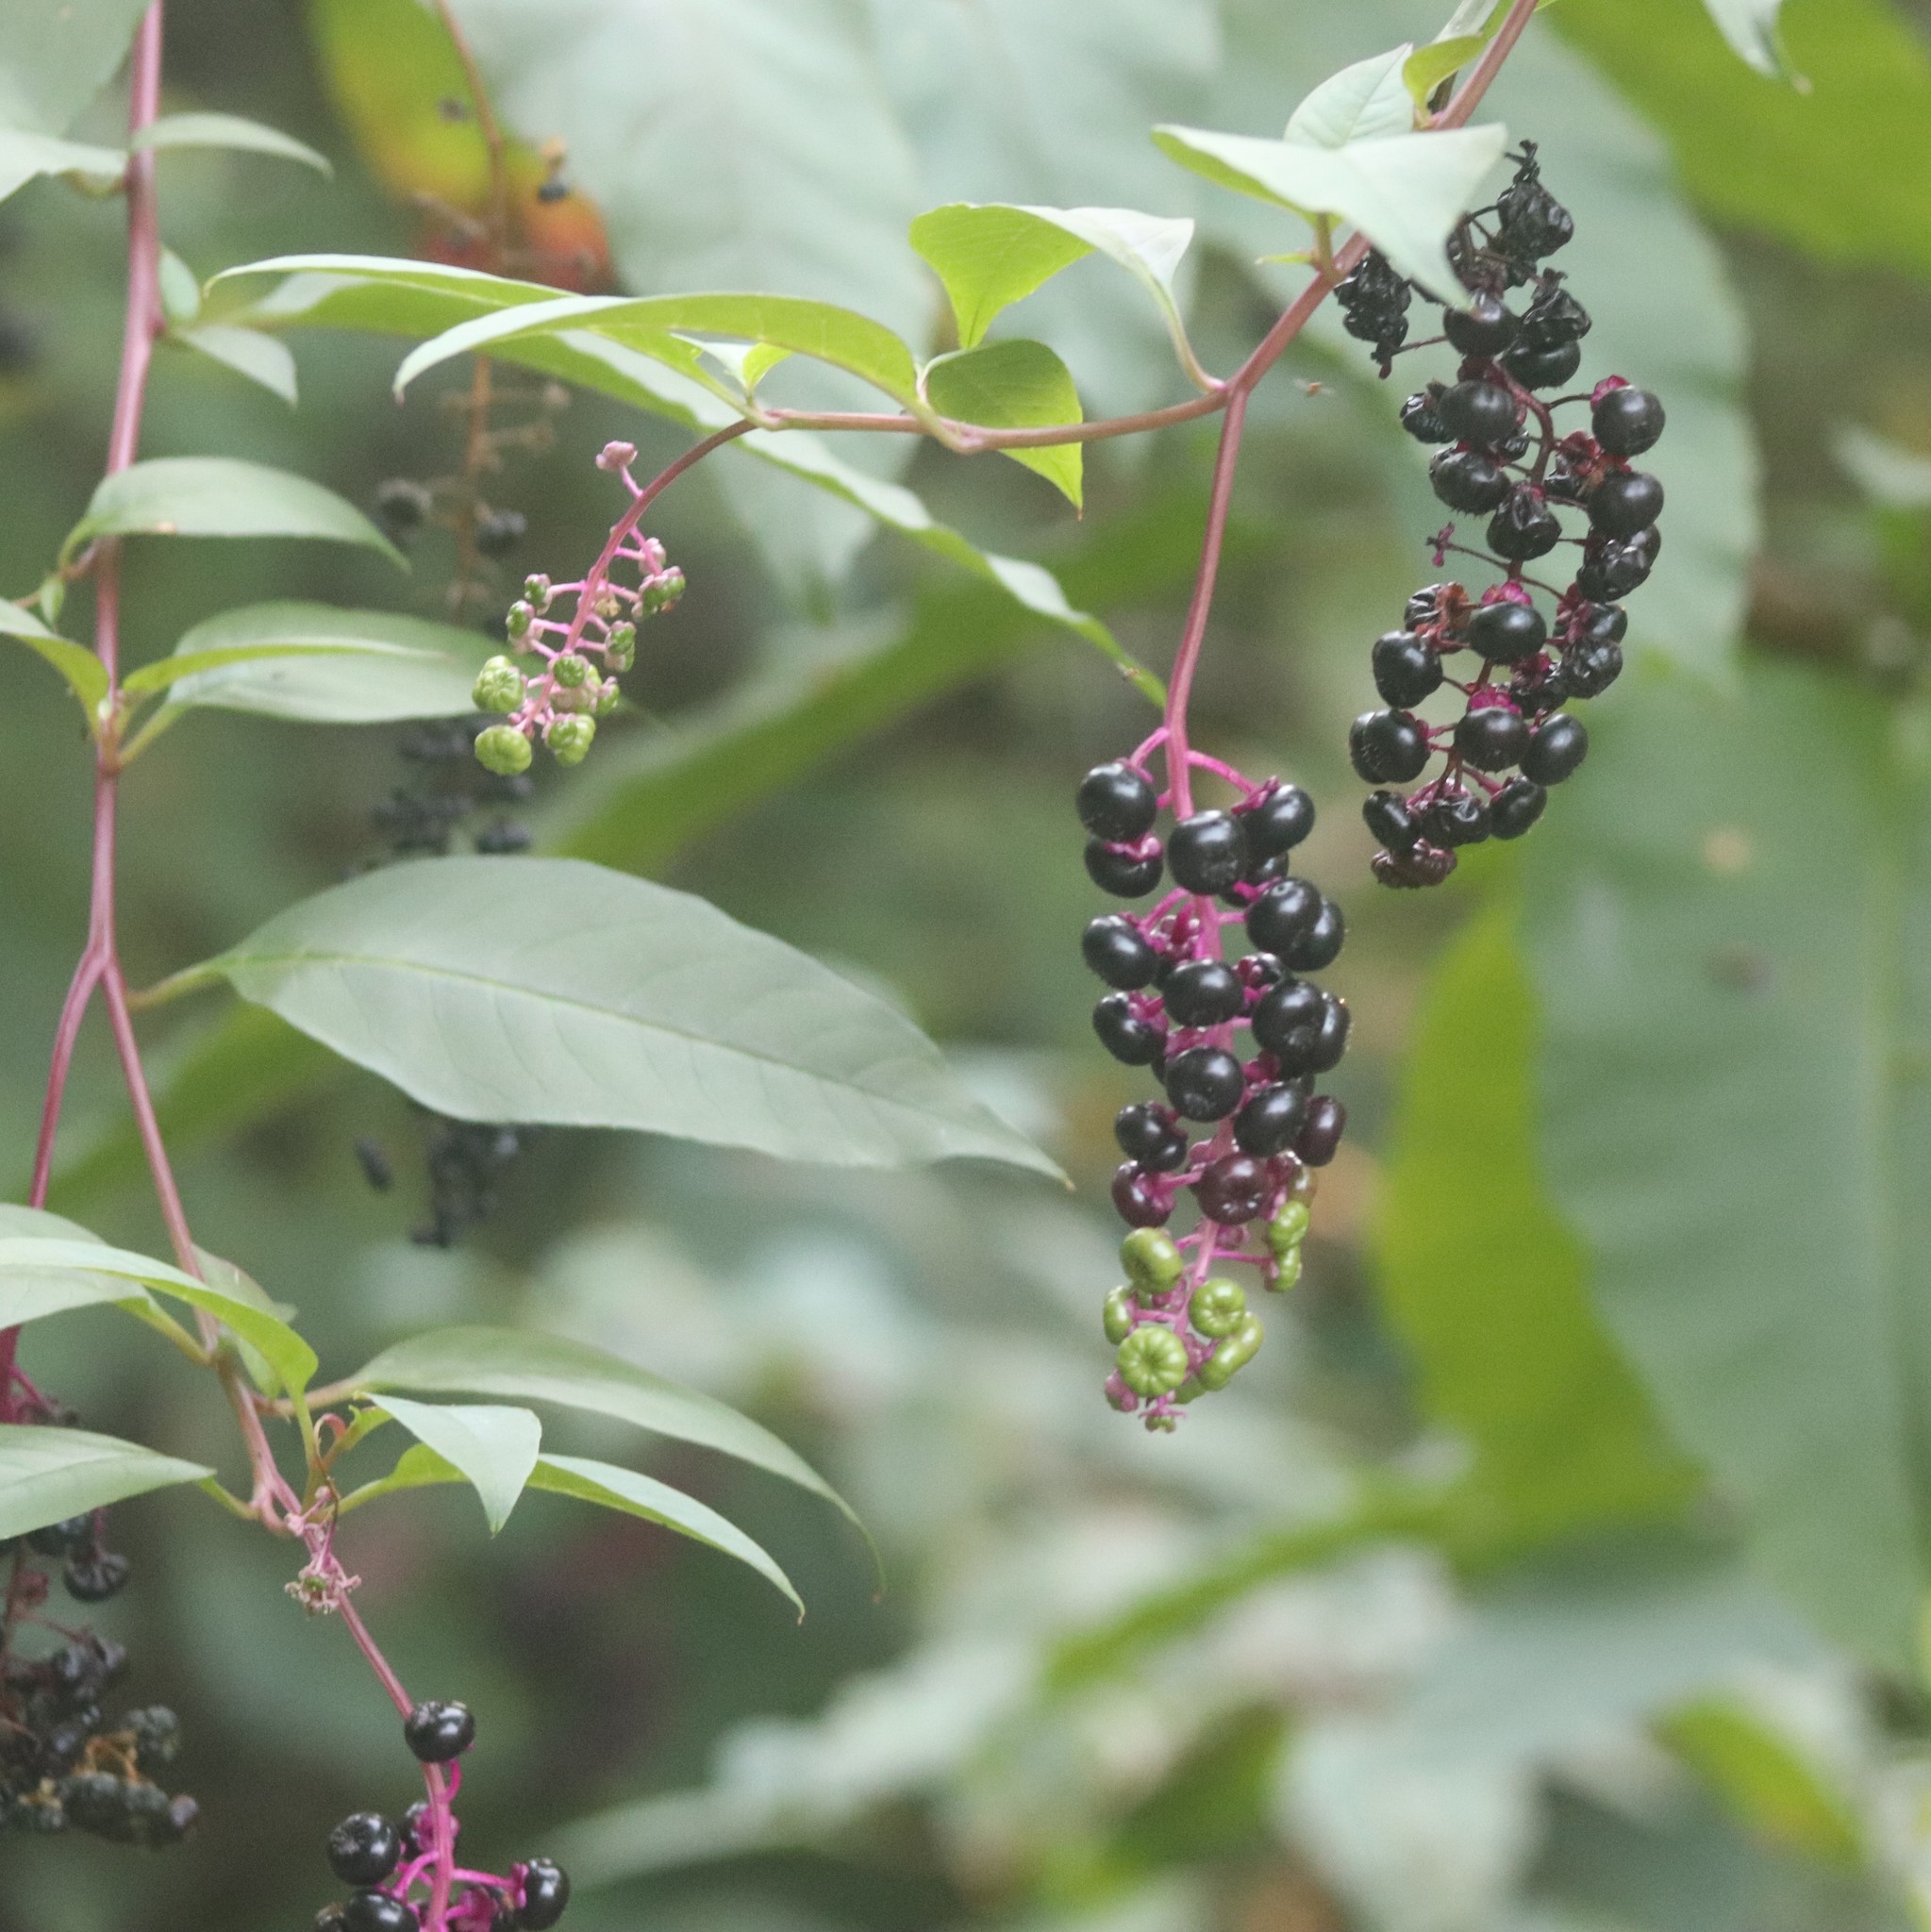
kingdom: Plantae
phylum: Tracheophyta
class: Magnoliopsida
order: Caryophyllales
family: Phytolaccaceae
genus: Phytolacca
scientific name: Phytolacca americana
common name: American pokeweed
